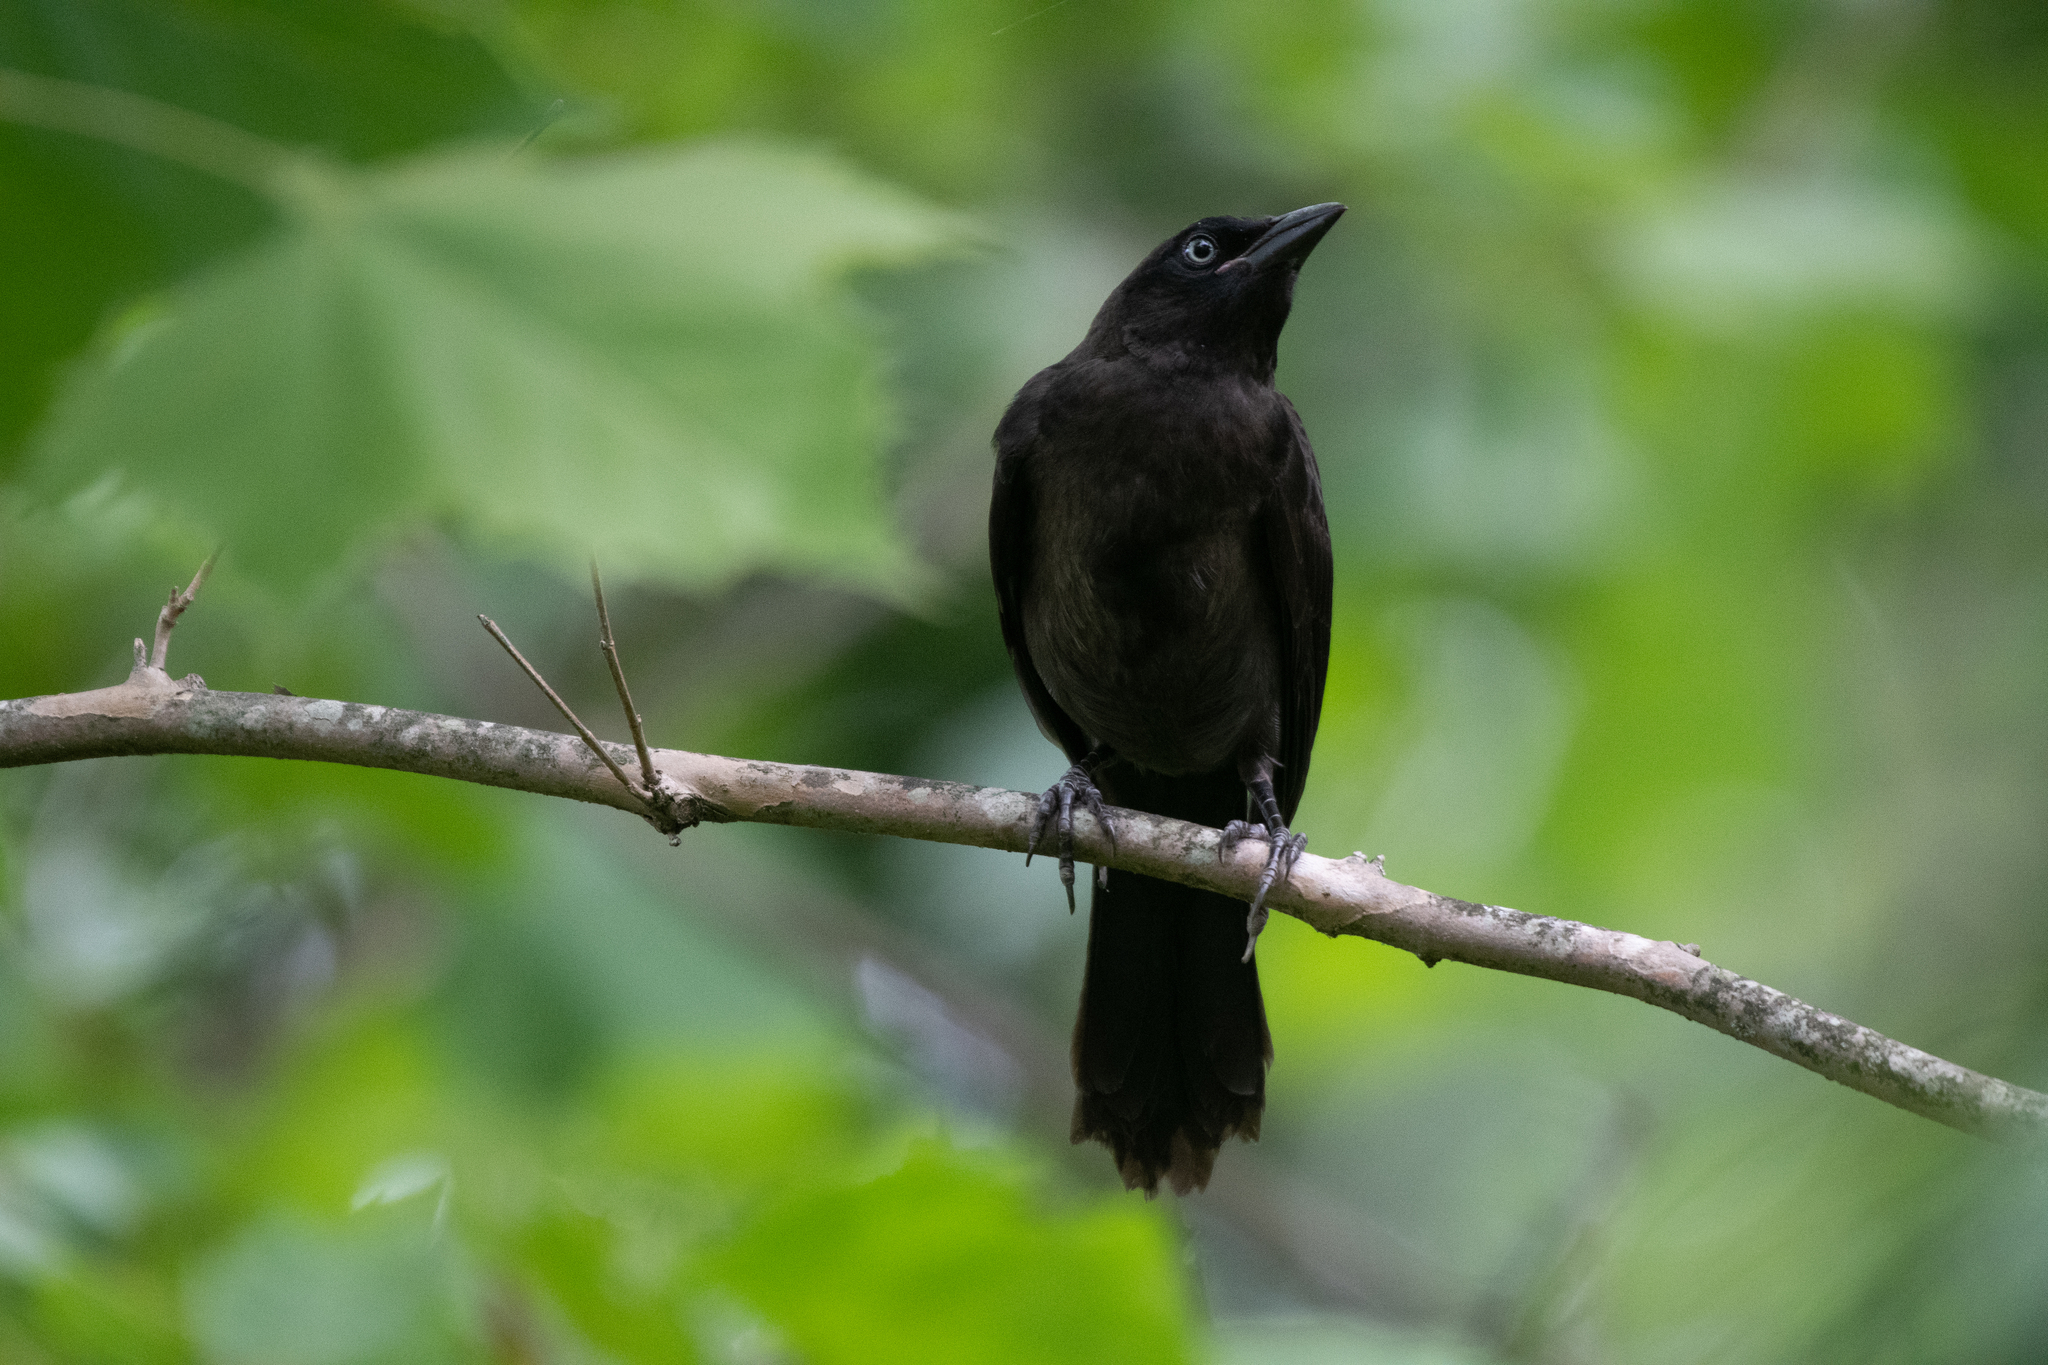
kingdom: Animalia
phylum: Chordata
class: Aves
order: Passeriformes
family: Icteridae
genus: Quiscalus
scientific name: Quiscalus quiscula
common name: Common grackle
